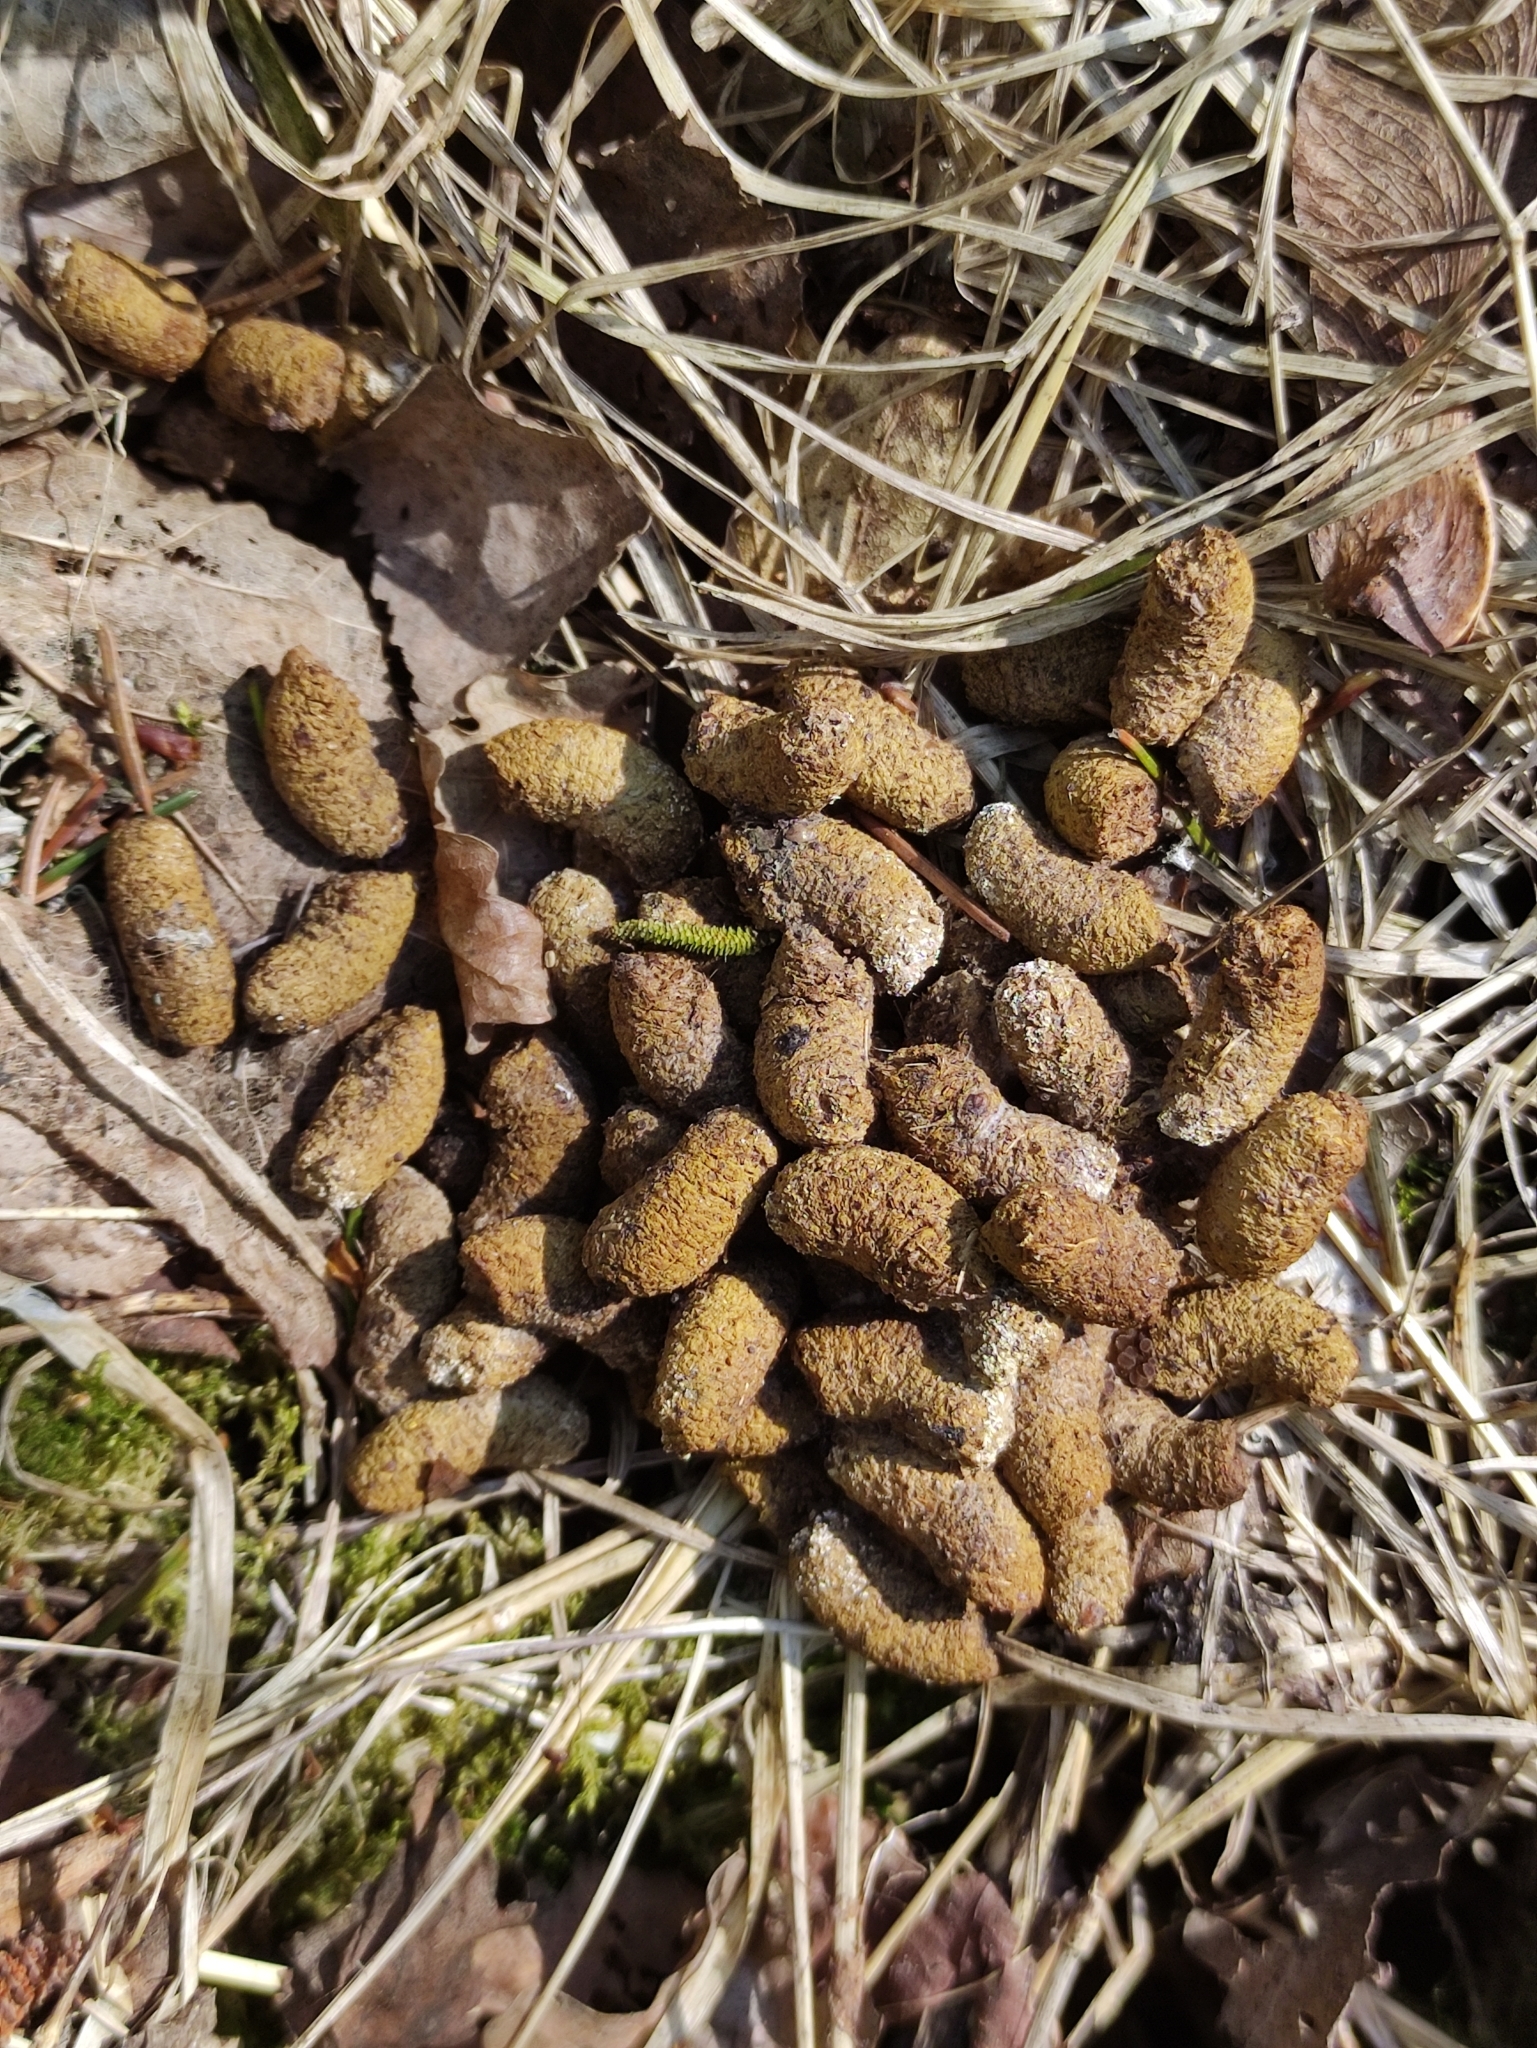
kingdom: Animalia
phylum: Chordata
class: Aves
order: Galliformes
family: Phasianidae
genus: Tetrastes
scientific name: Tetrastes bonasia
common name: Hazel grouse
